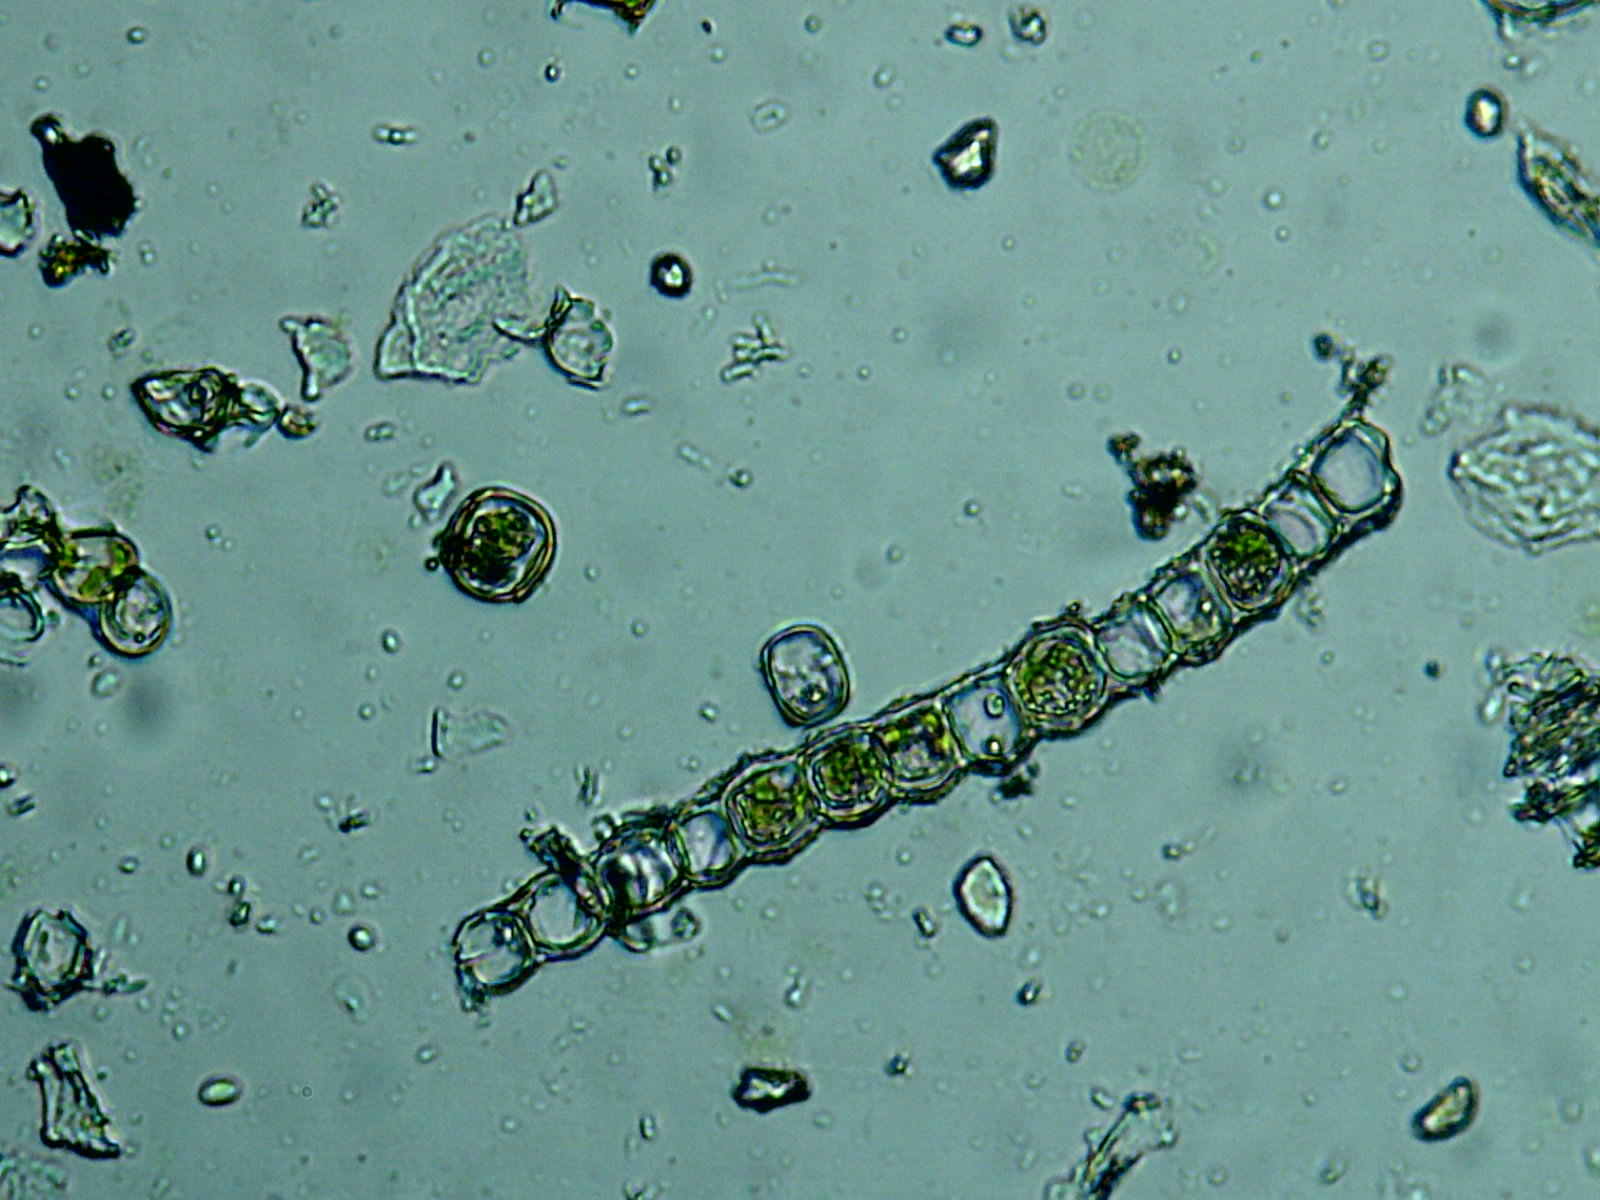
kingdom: Plantae
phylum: Bryophyta
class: Polytrichopsida
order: Polytrichales
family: Polytrichaceae
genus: Atrichum
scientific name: Atrichum altecristatum
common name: Ridged smoothcap moss
